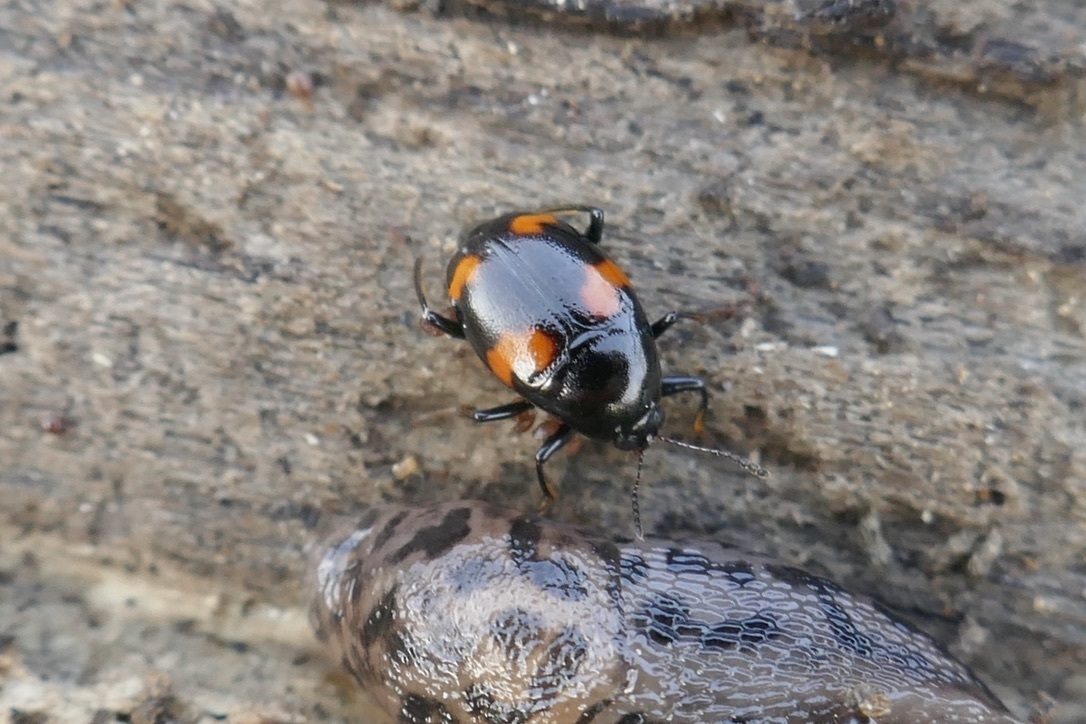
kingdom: Animalia
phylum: Arthropoda
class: Insecta
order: Coleoptera
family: Staphylinidae
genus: Scaphidium
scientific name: Scaphidium quadrimaculatum
